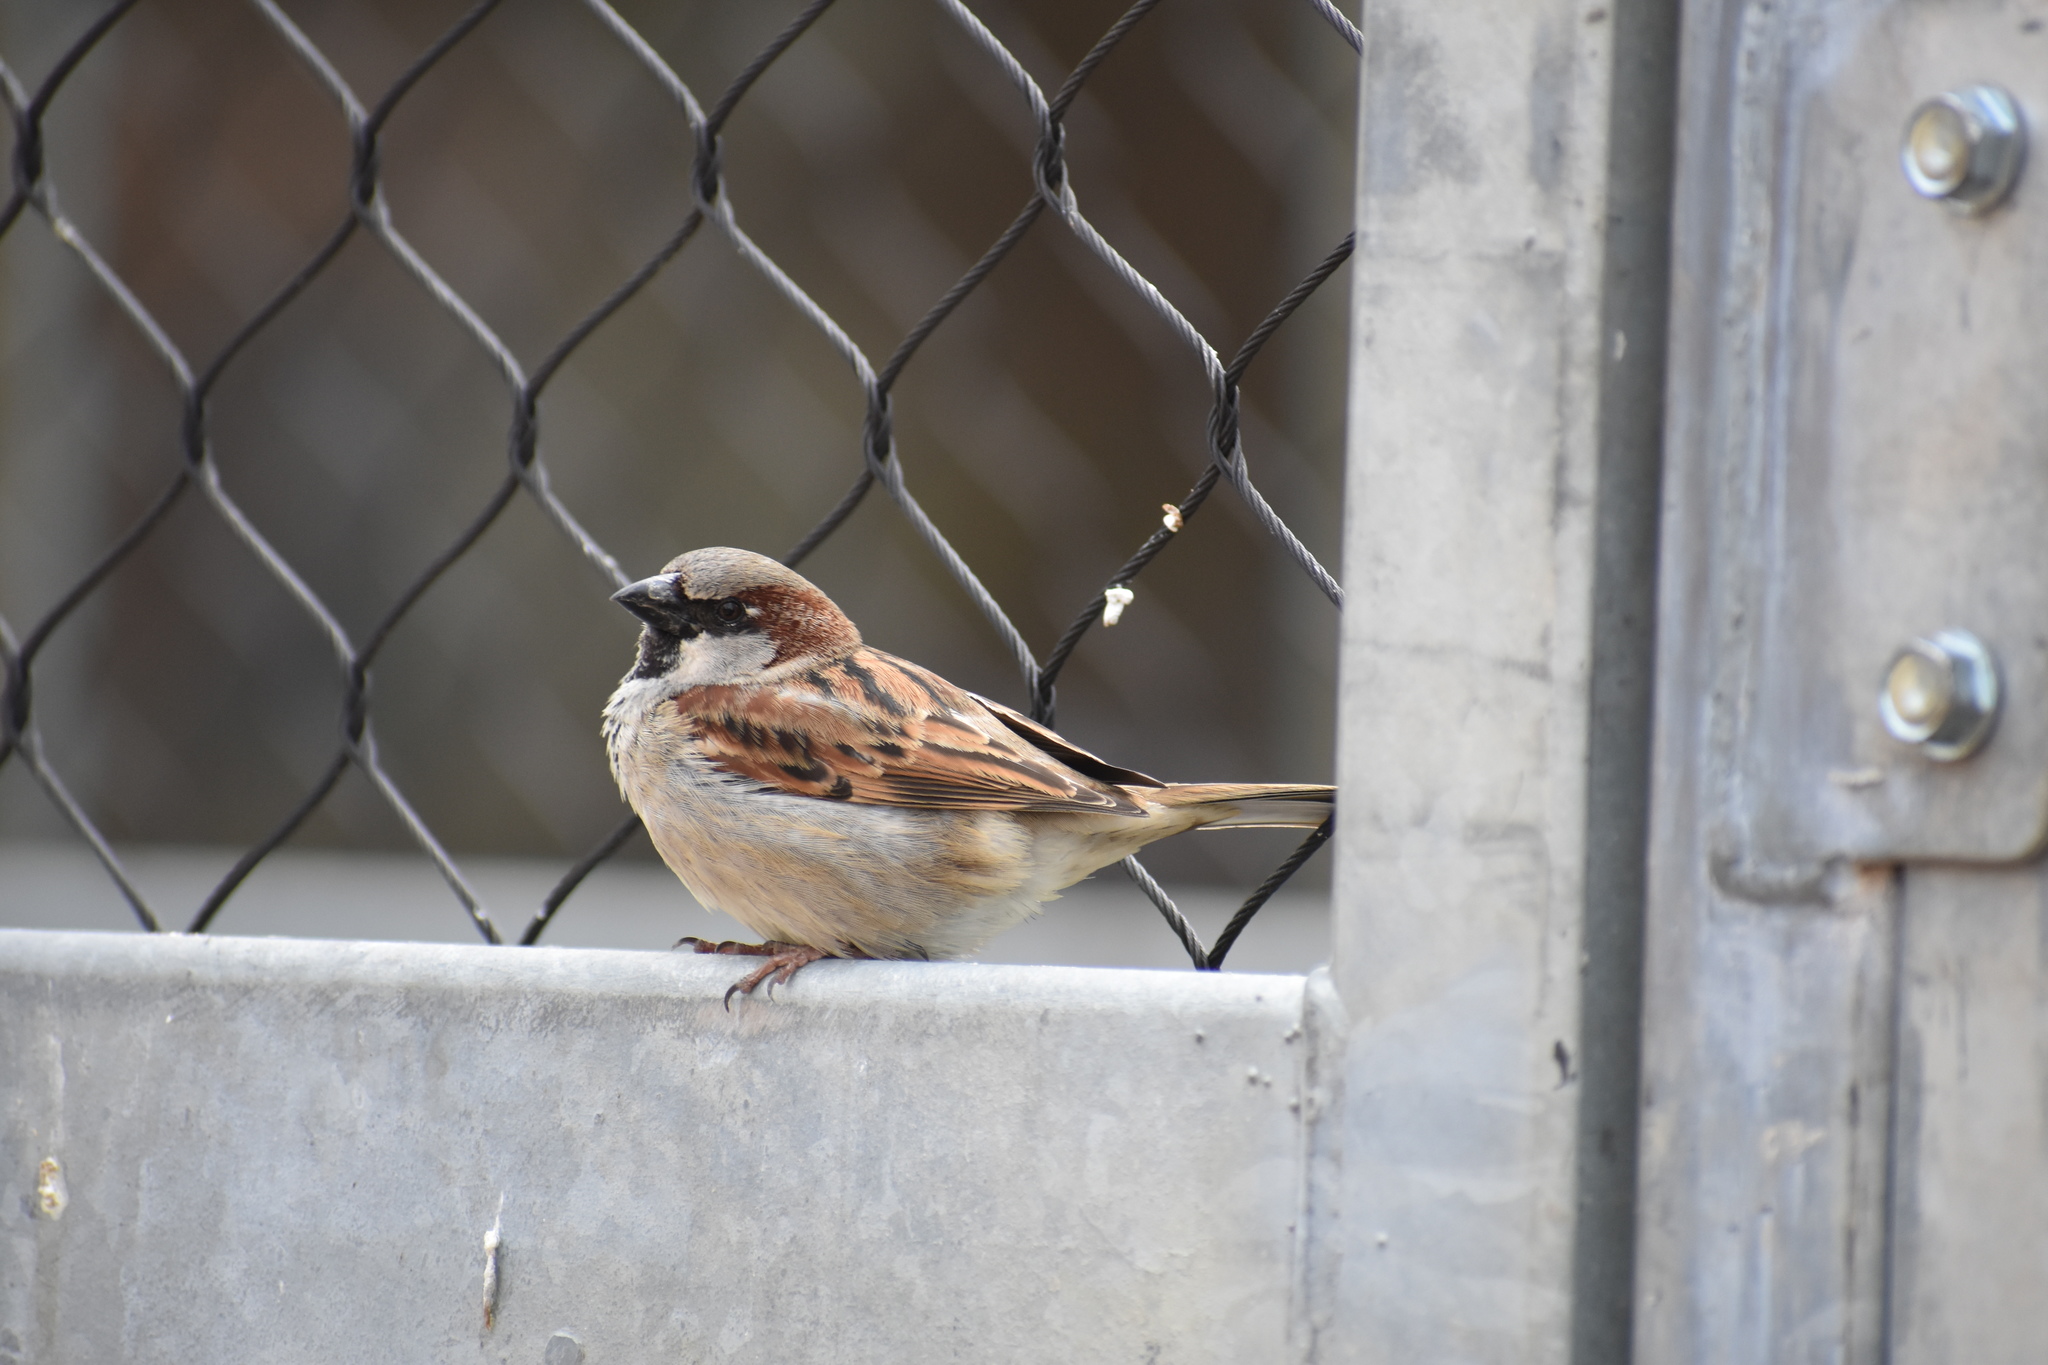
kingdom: Animalia
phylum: Chordata
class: Aves
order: Passeriformes
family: Passeridae
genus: Passer
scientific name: Passer domesticus
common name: House sparrow
